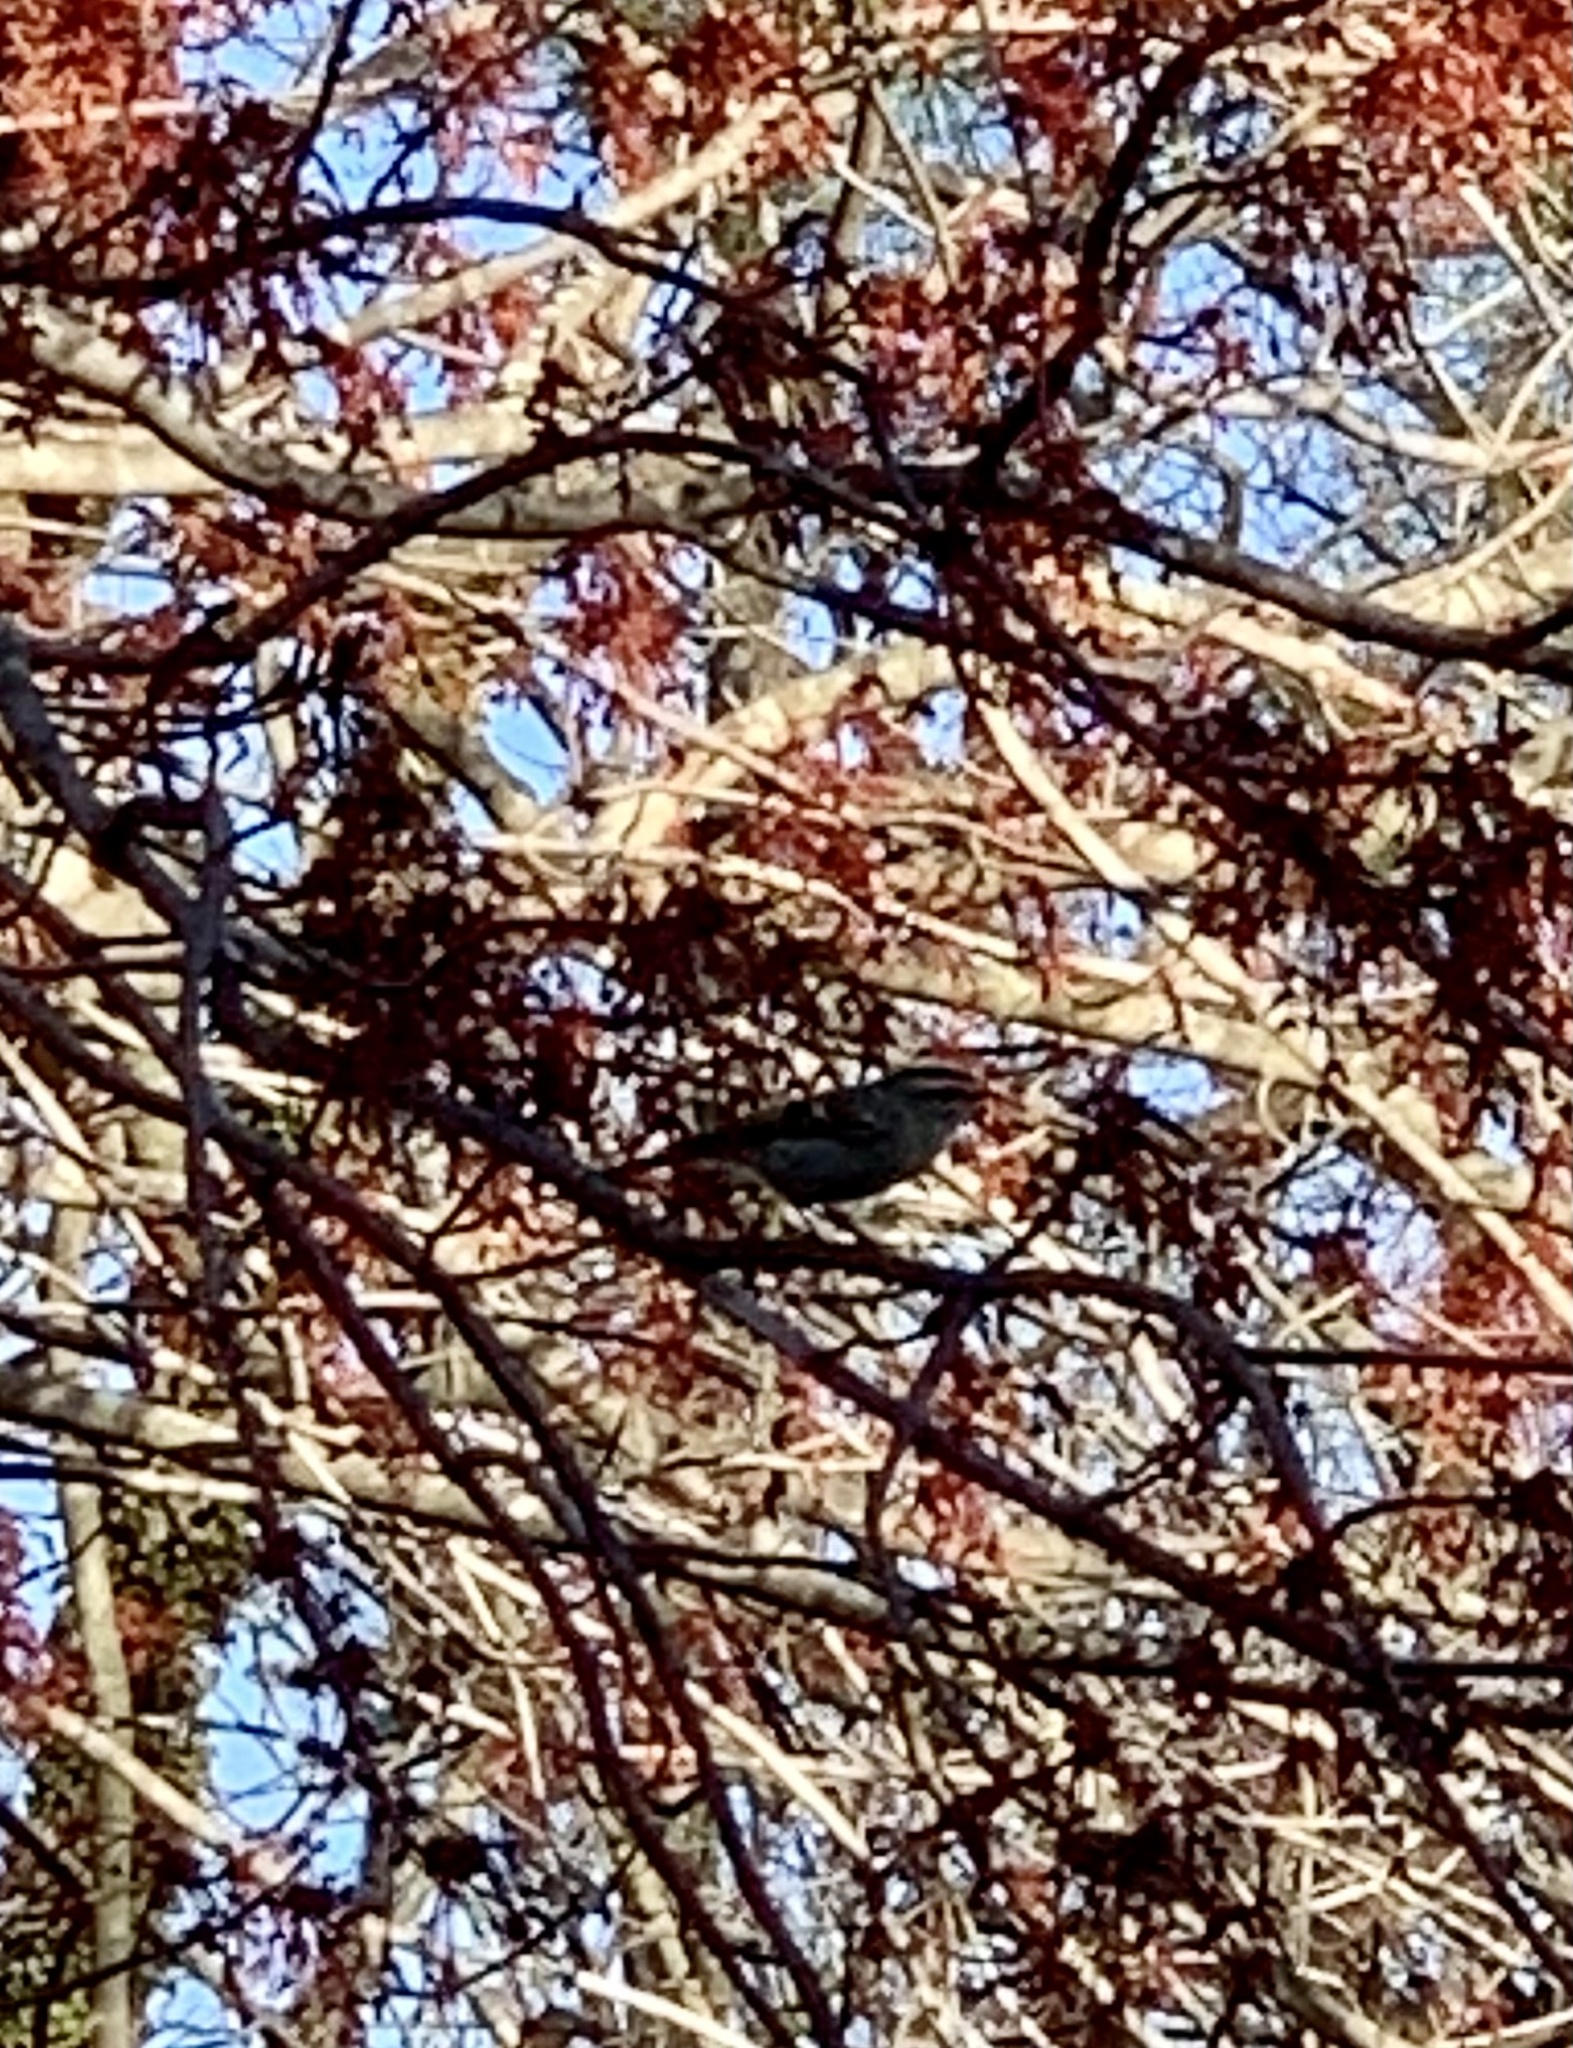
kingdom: Animalia
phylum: Chordata
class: Aves
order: Passeriformes
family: Regulidae
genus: Regulus
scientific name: Regulus satrapa
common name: Golden-crowned kinglet
